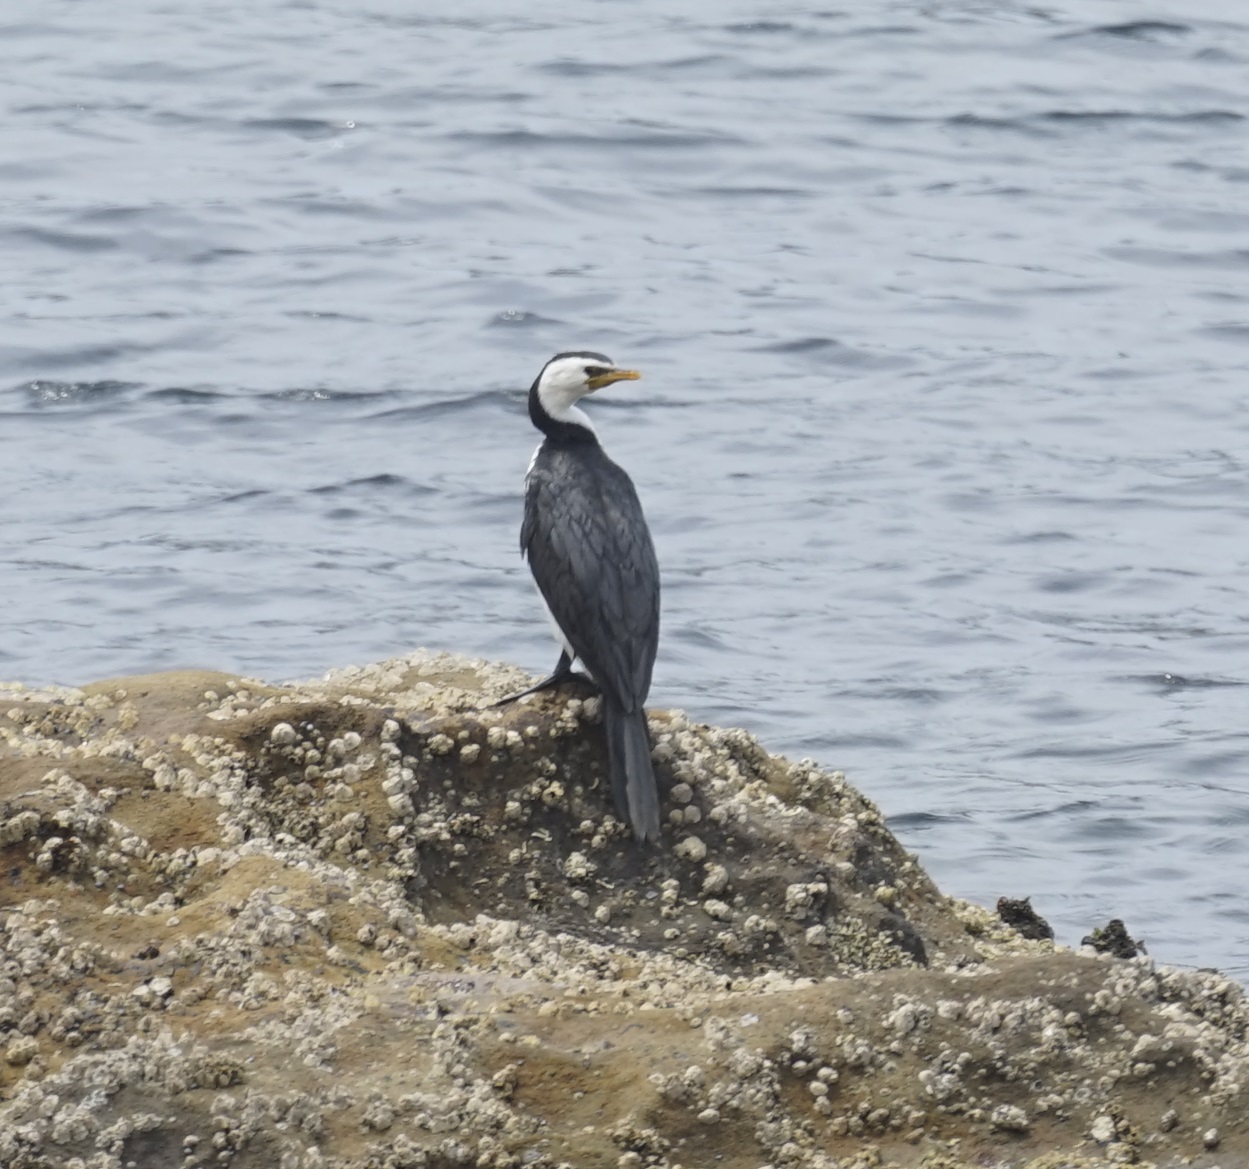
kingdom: Animalia
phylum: Chordata
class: Aves
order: Suliformes
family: Phalacrocoracidae
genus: Microcarbo
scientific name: Microcarbo melanoleucos
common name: Little pied cormorant
